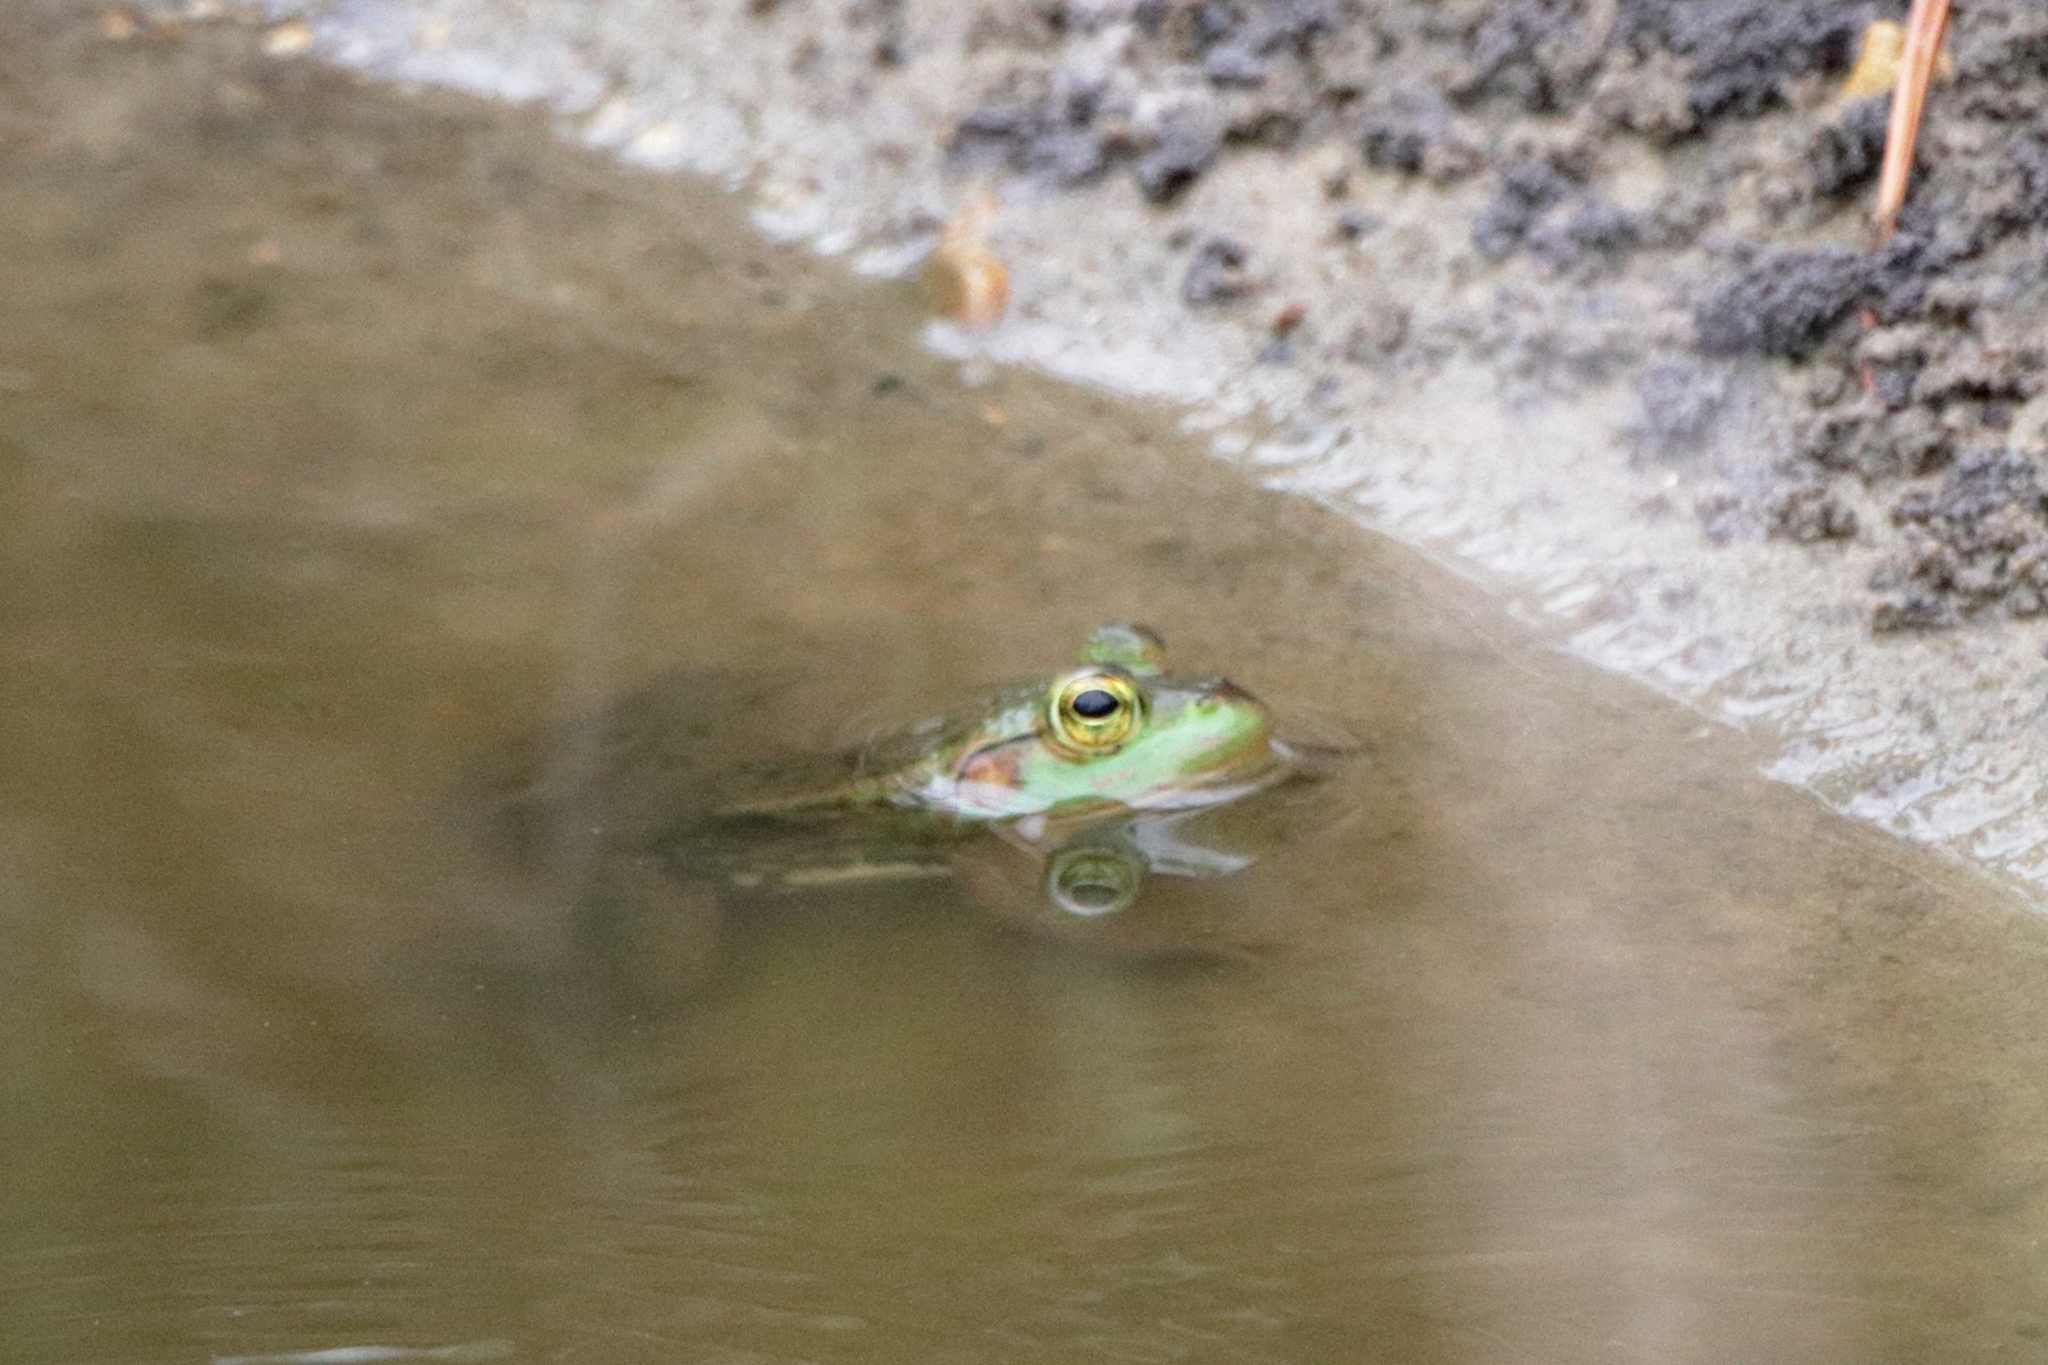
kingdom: Animalia
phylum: Chordata
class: Amphibia
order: Anura
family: Ranidae
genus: Lithobates
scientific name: Lithobates catesbeianus
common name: American bullfrog
